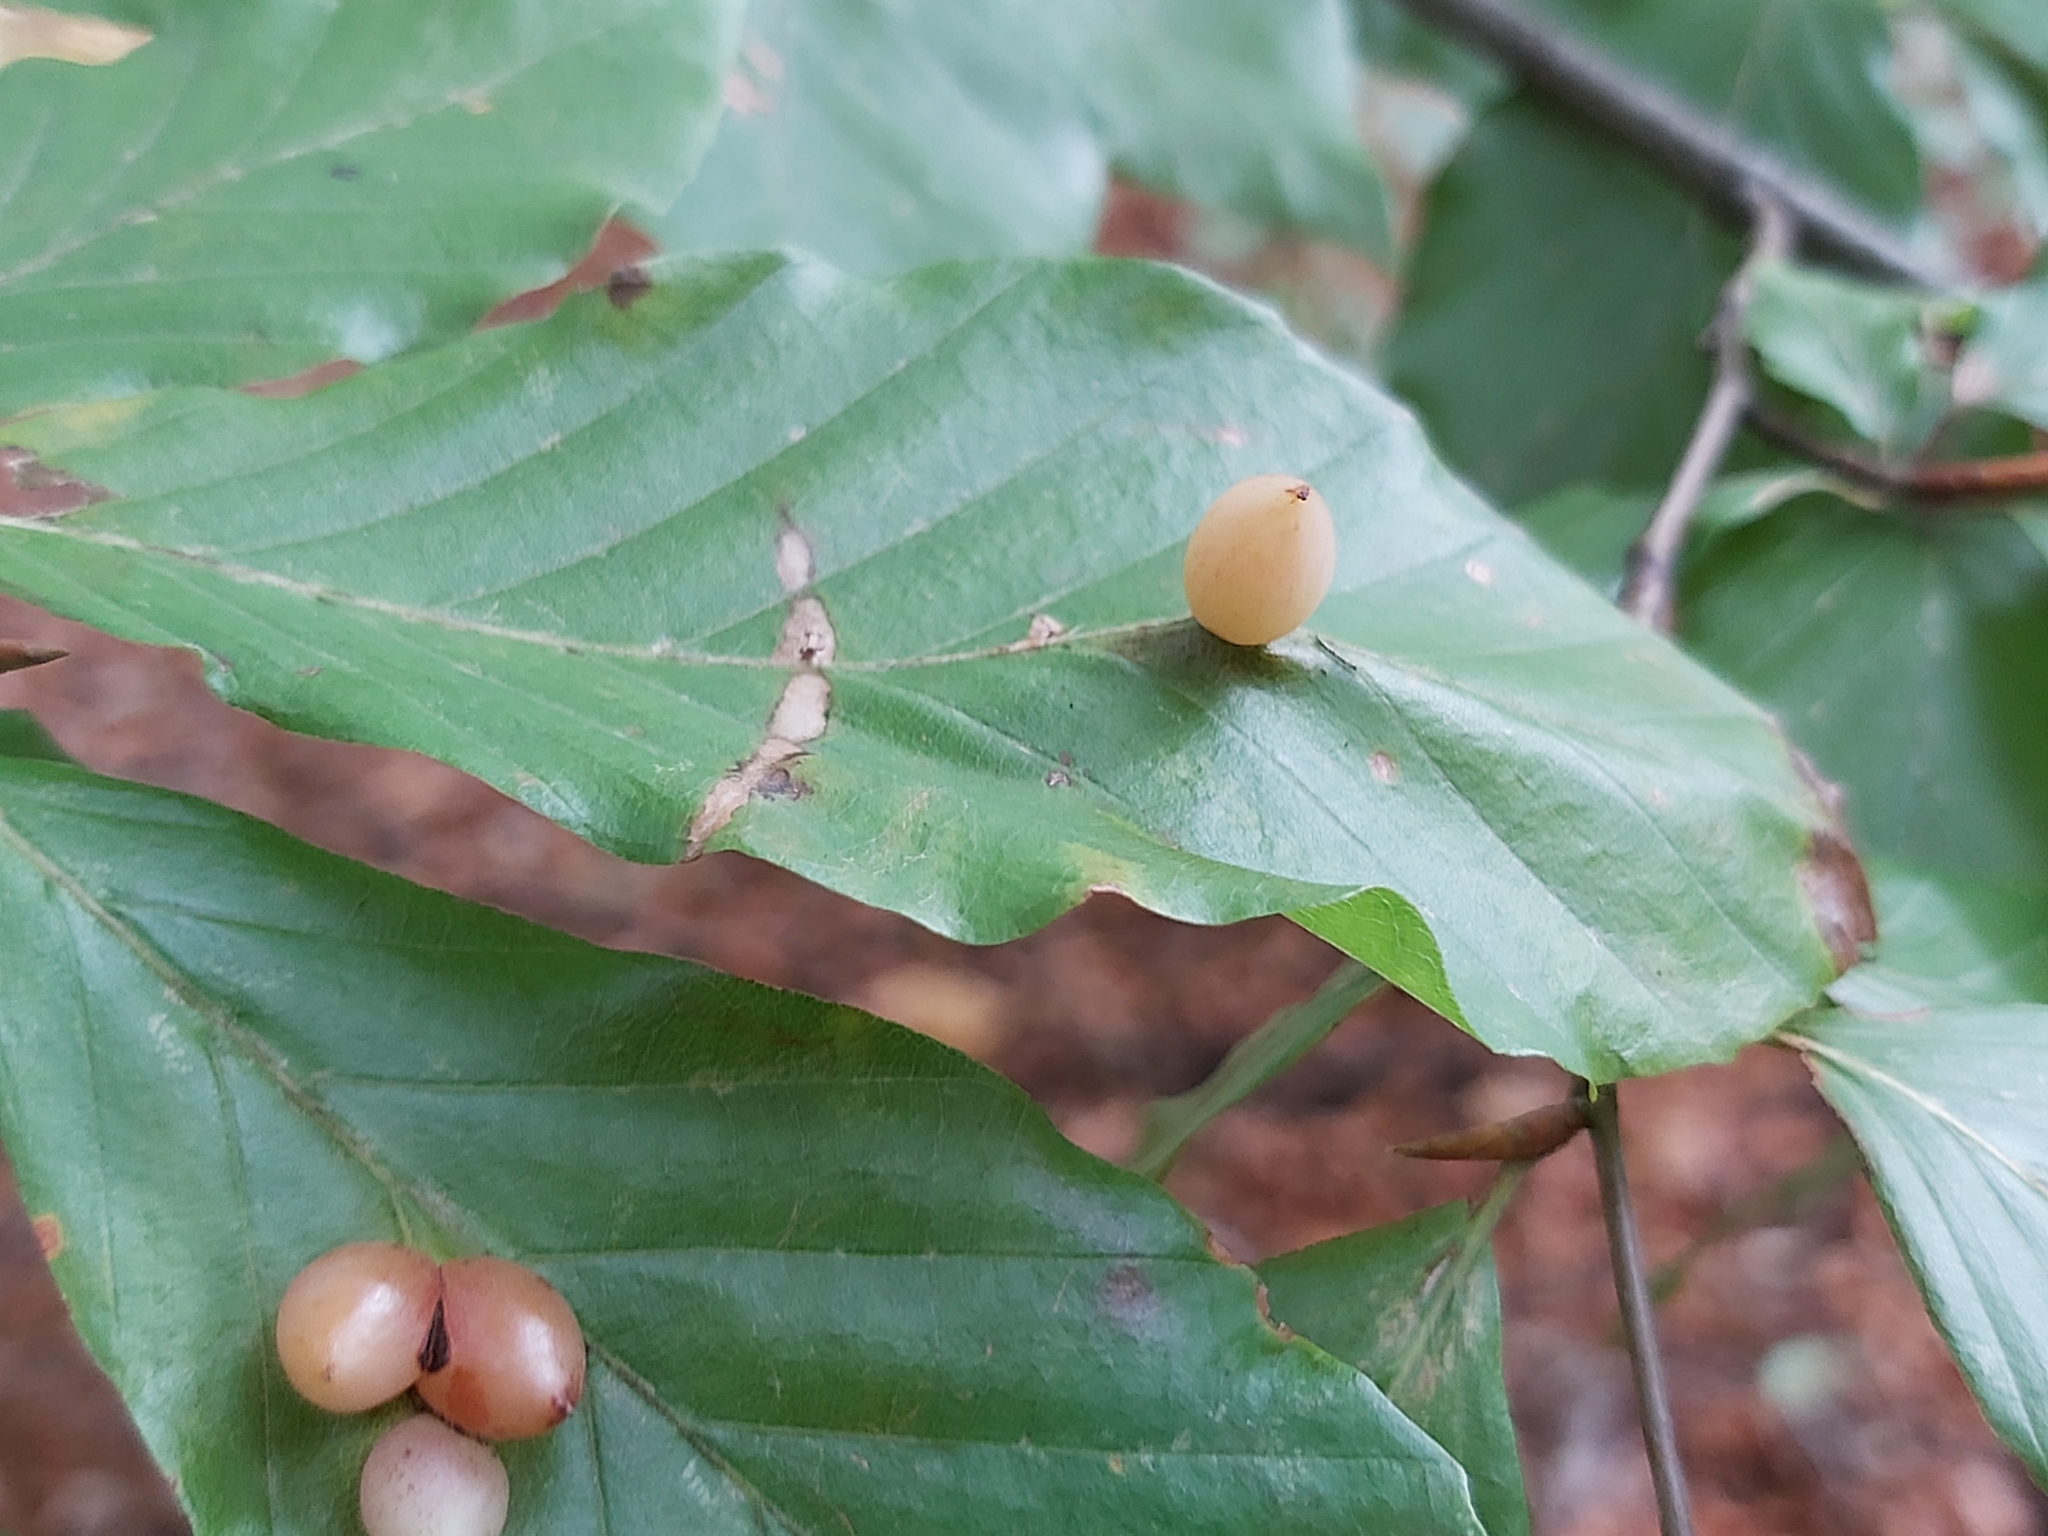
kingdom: Animalia
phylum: Arthropoda
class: Insecta
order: Diptera
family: Cecidomyiidae
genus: Mikiola
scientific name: Mikiola fagi
